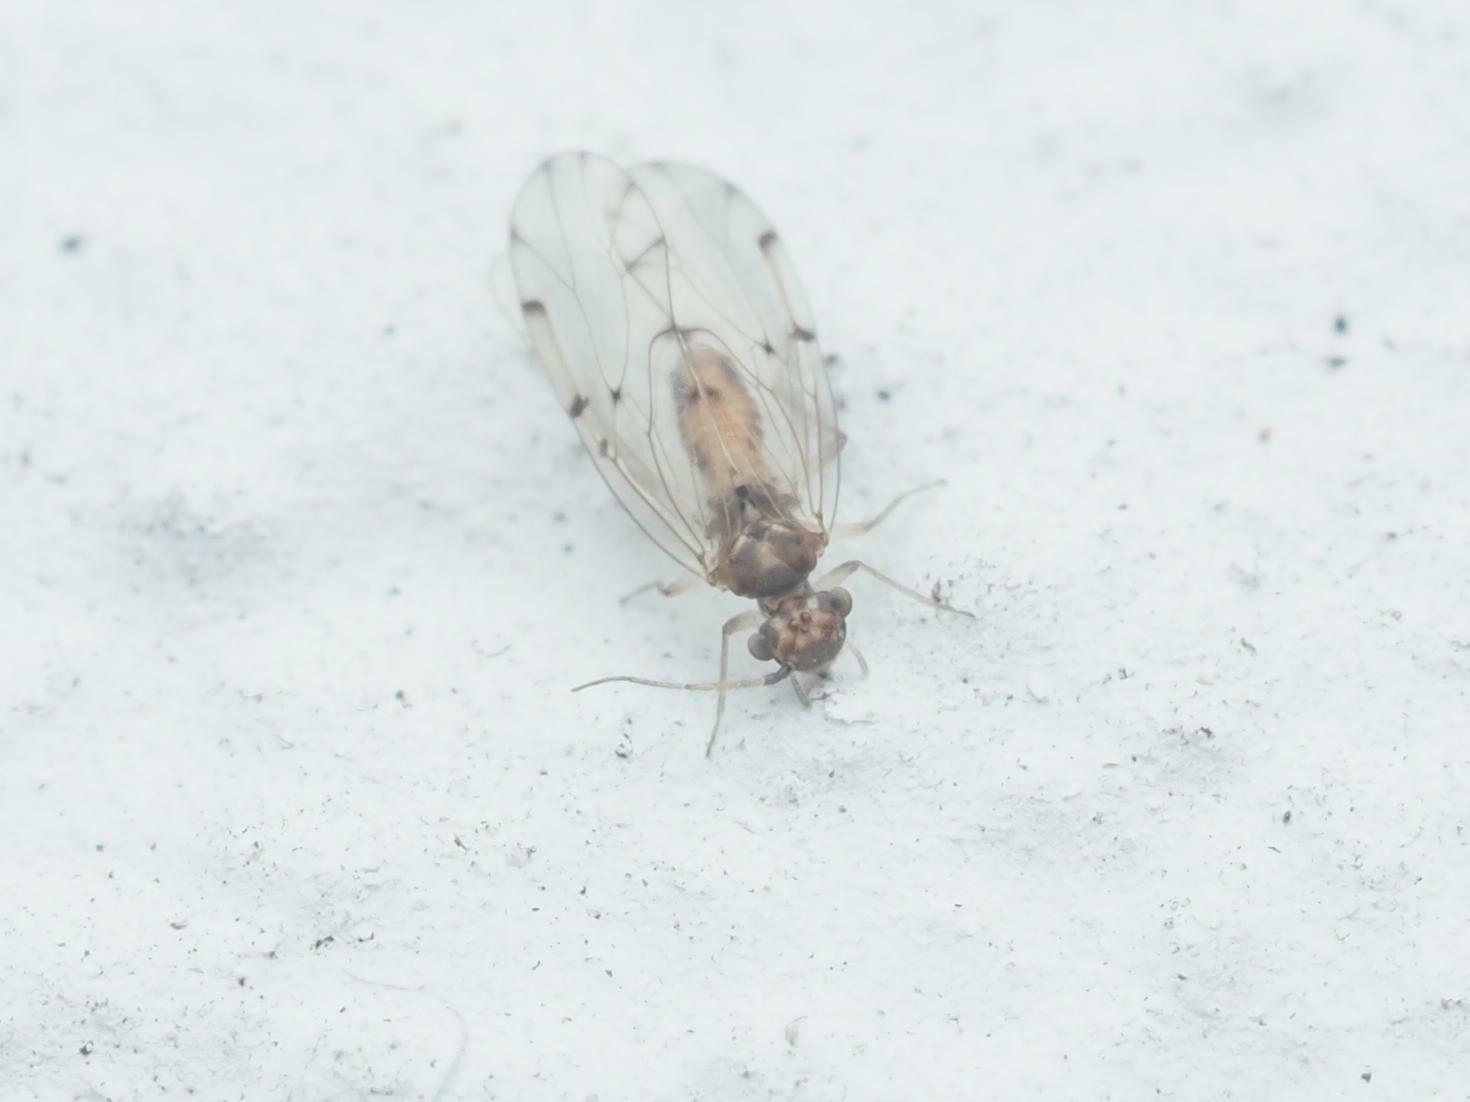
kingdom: Animalia
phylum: Arthropoda
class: Insecta
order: Psocodea
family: Ectopsocidae
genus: Ectopsocus
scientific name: Ectopsocus petersi
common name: Medium-sized bark louse
